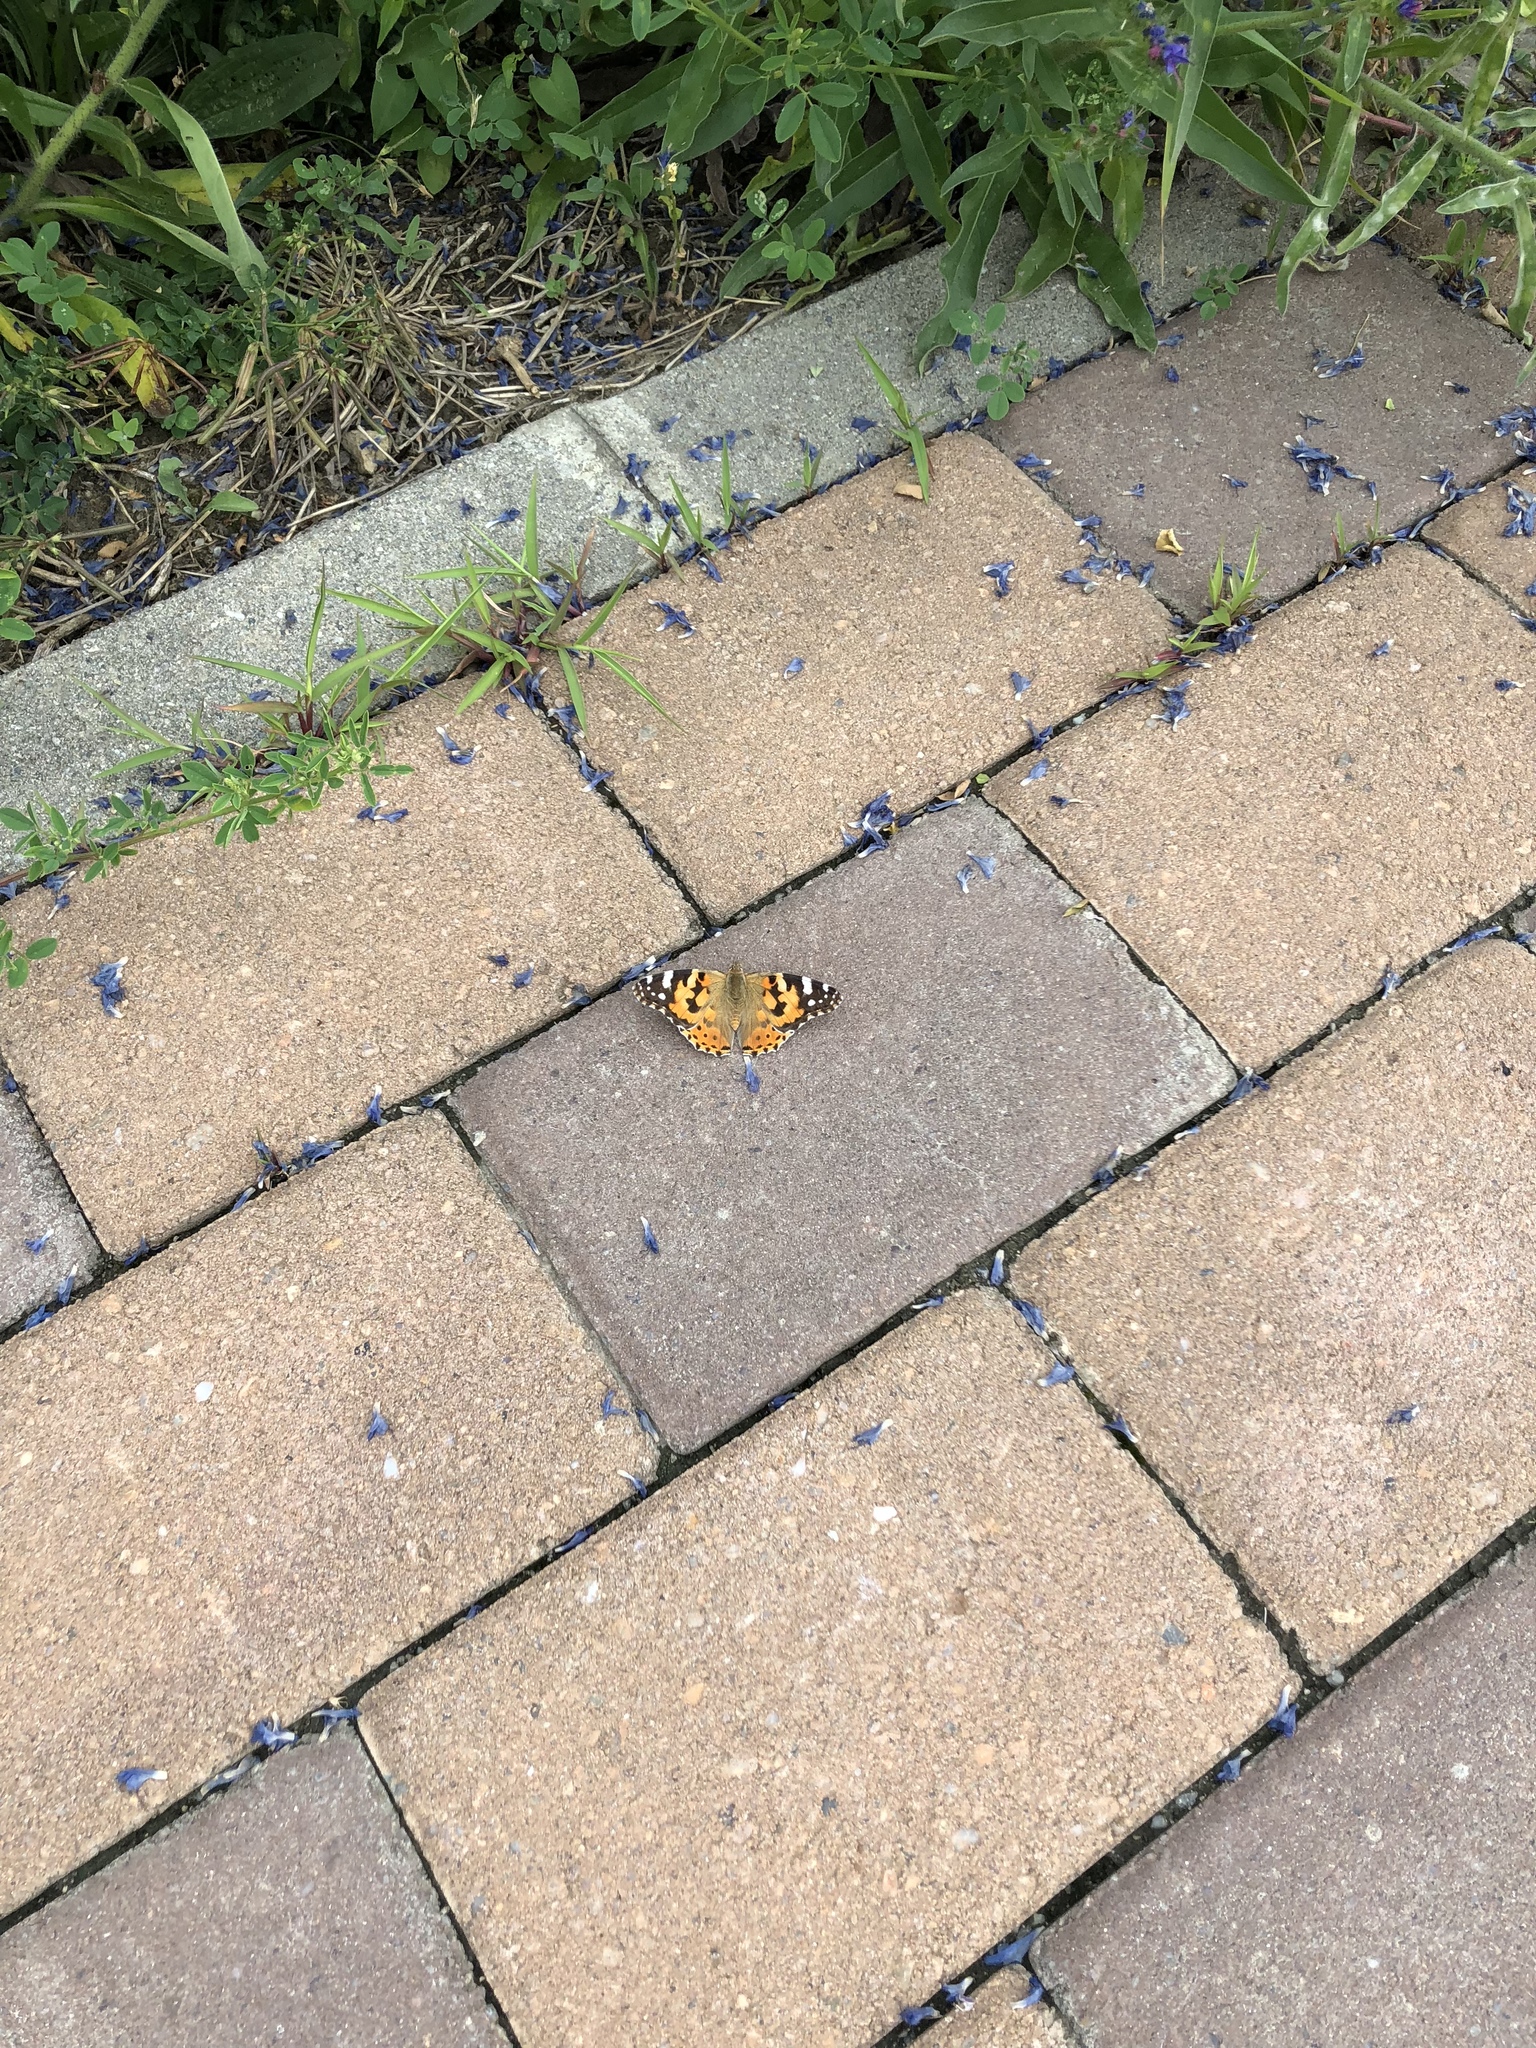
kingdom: Animalia
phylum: Arthropoda
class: Insecta
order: Lepidoptera
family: Nymphalidae
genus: Vanessa
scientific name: Vanessa cardui
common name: Painted lady
